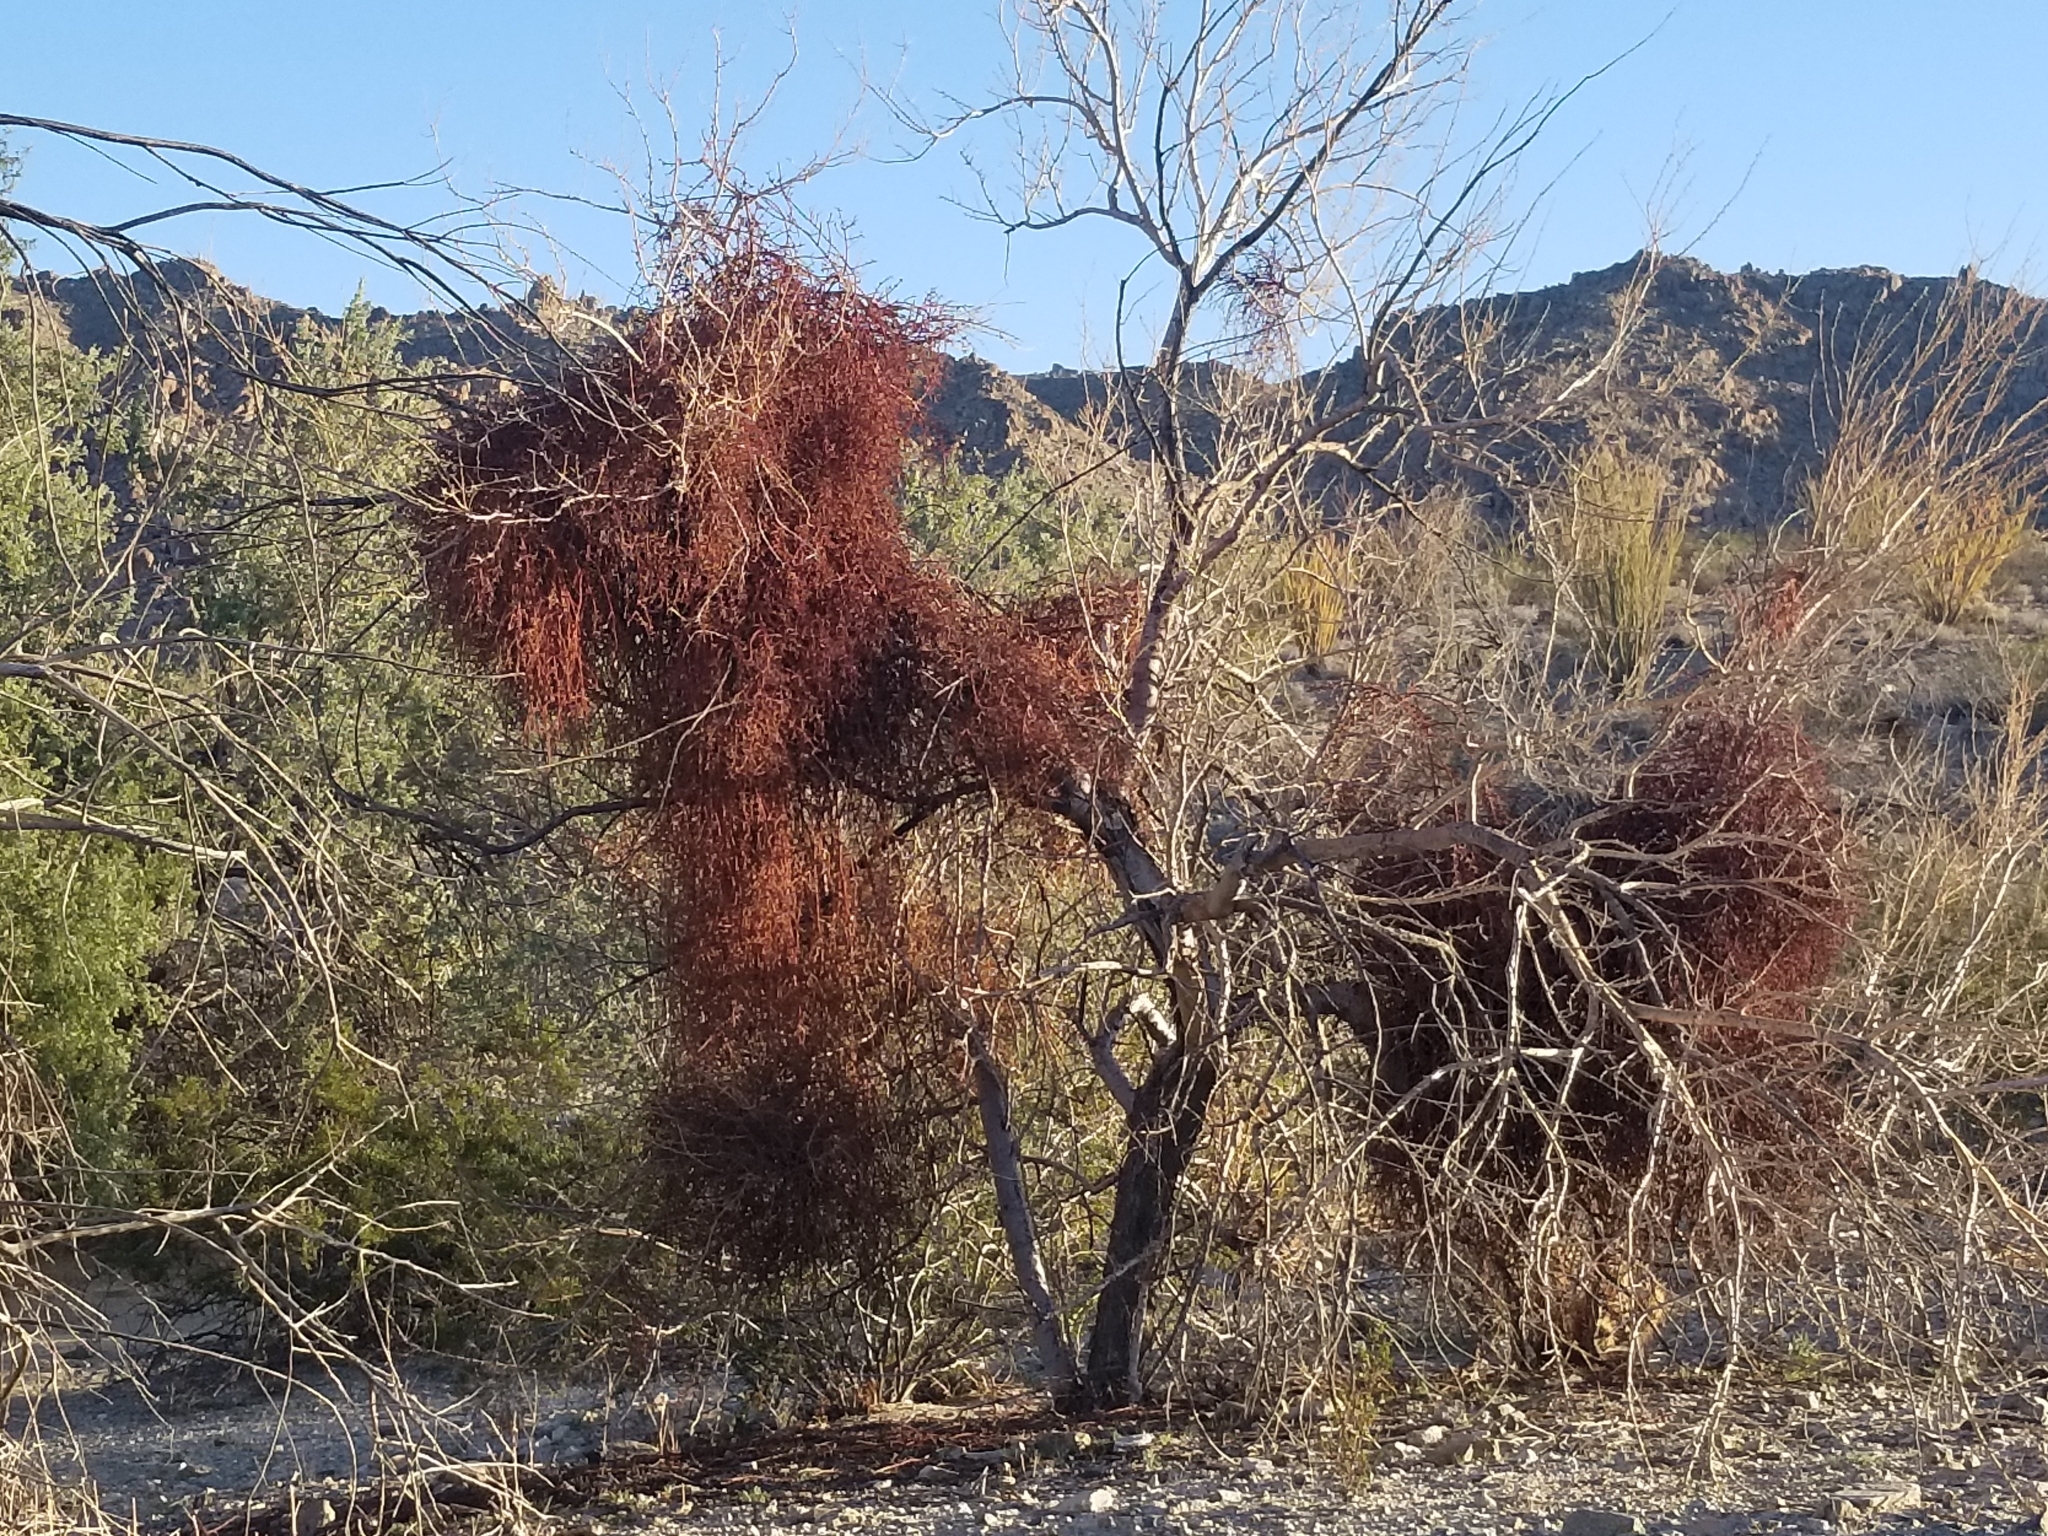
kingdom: Plantae
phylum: Tracheophyta
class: Magnoliopsida
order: Santalales
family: Viscaceae
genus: Phoradendron
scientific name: Phoradendron californicum
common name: Acacia mistletoe
